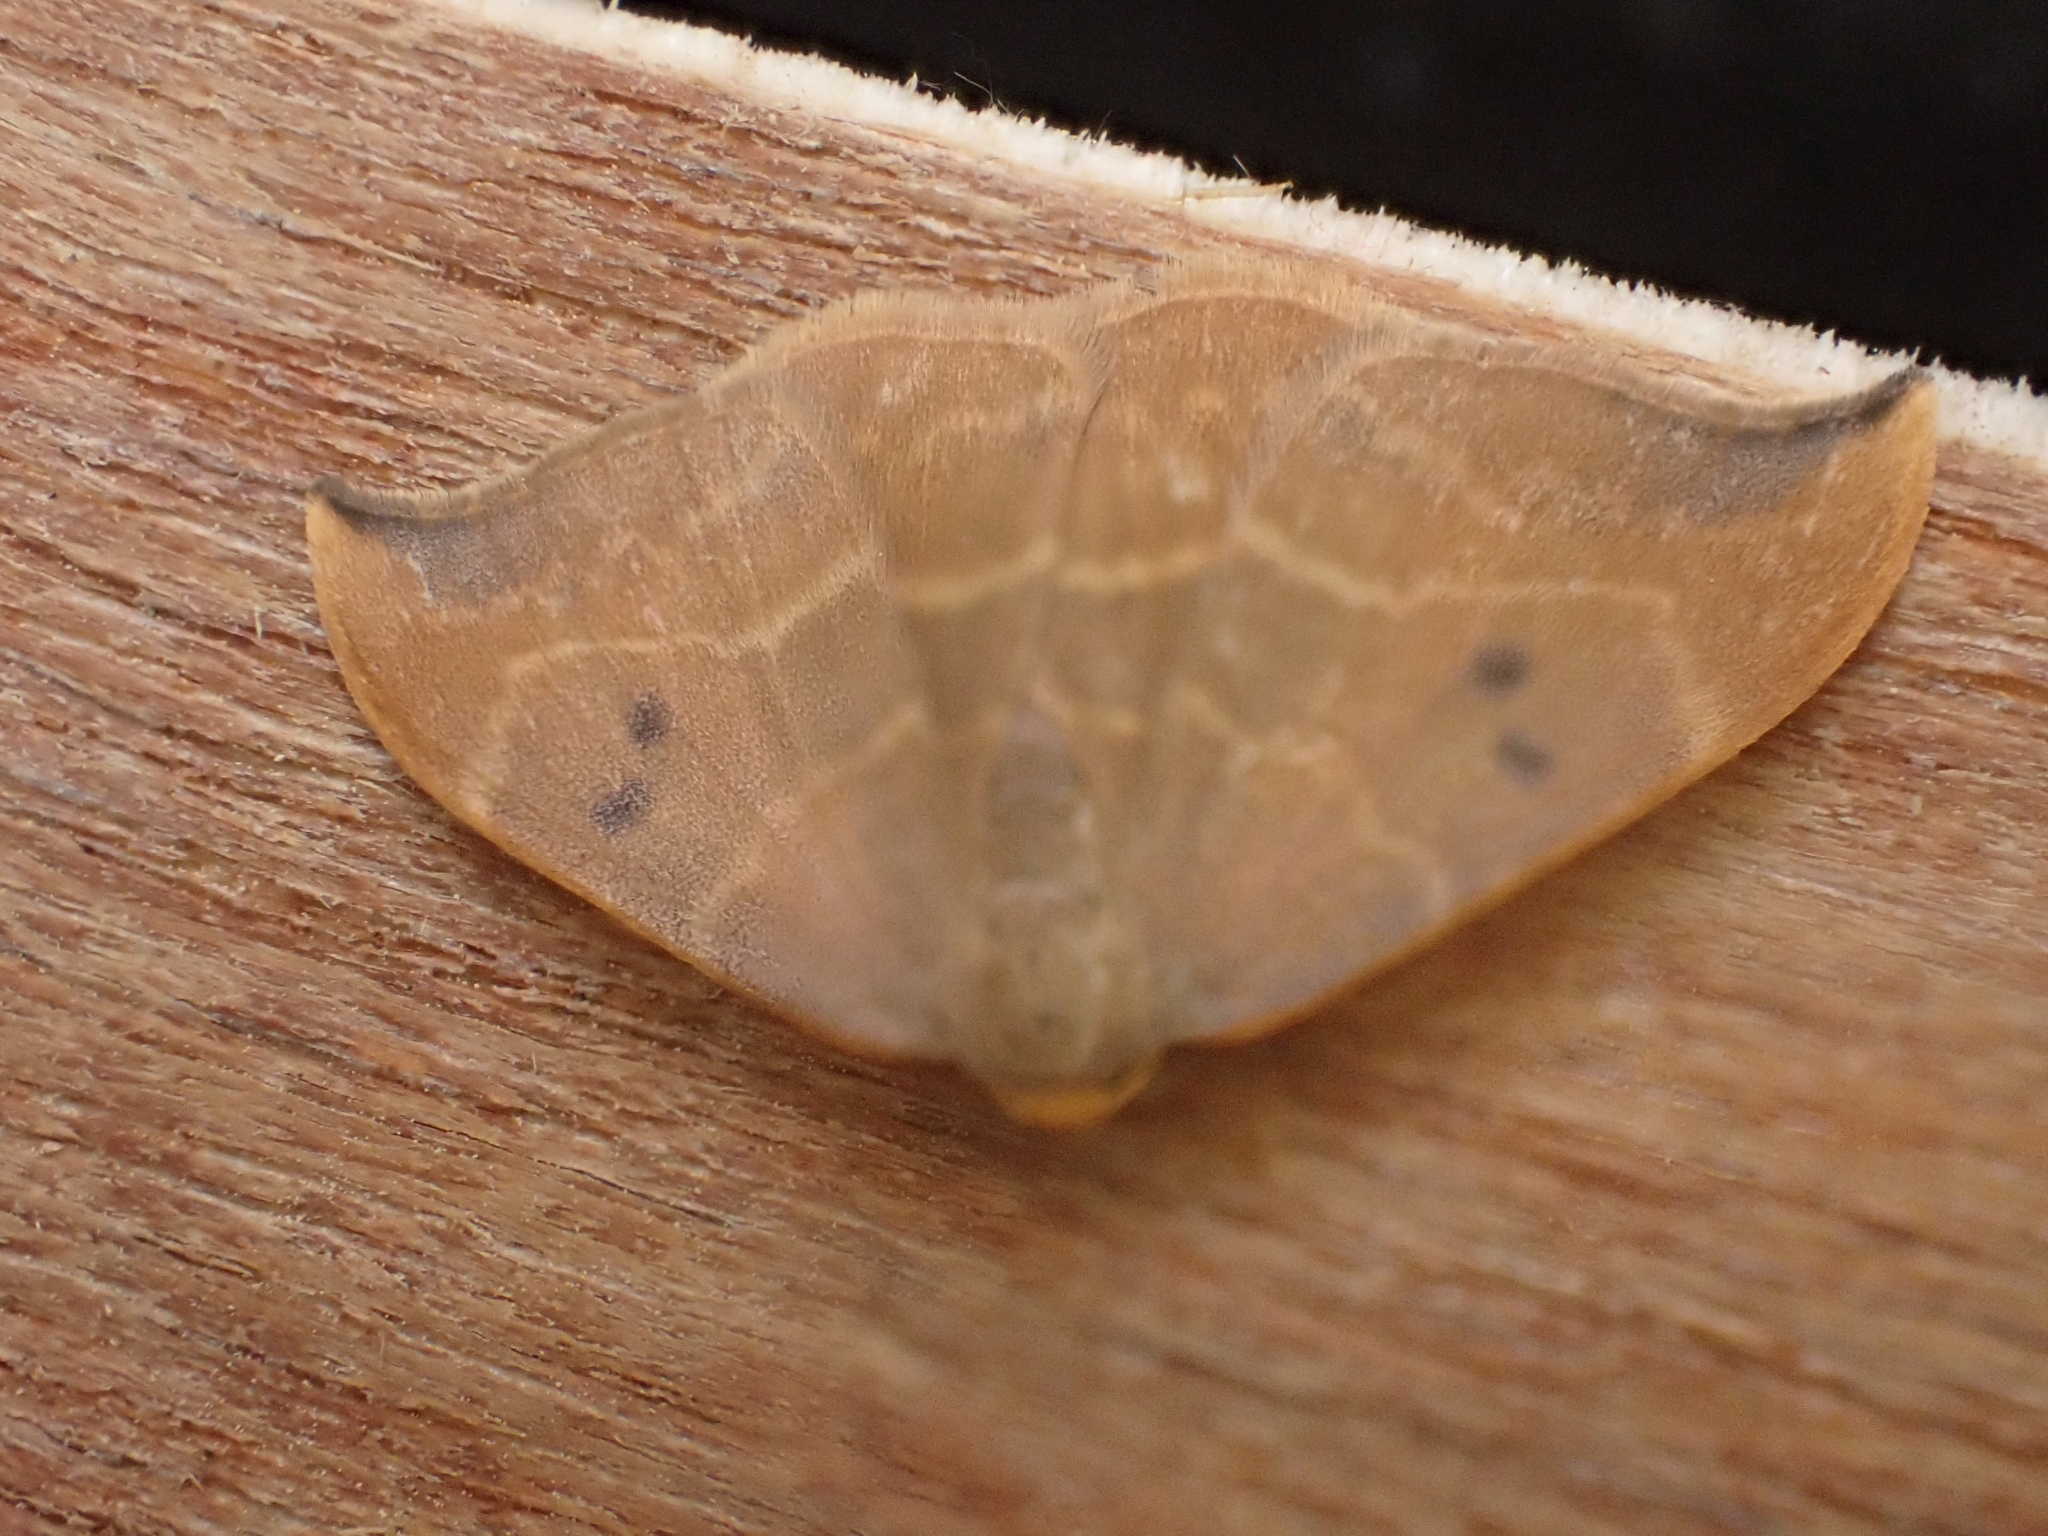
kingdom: Animalia
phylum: Arthropoda
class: Insecta
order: Lepidoptera
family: Drepanidae
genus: Watsonalla
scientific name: Watsonalla binaria
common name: Oak hook-tip
